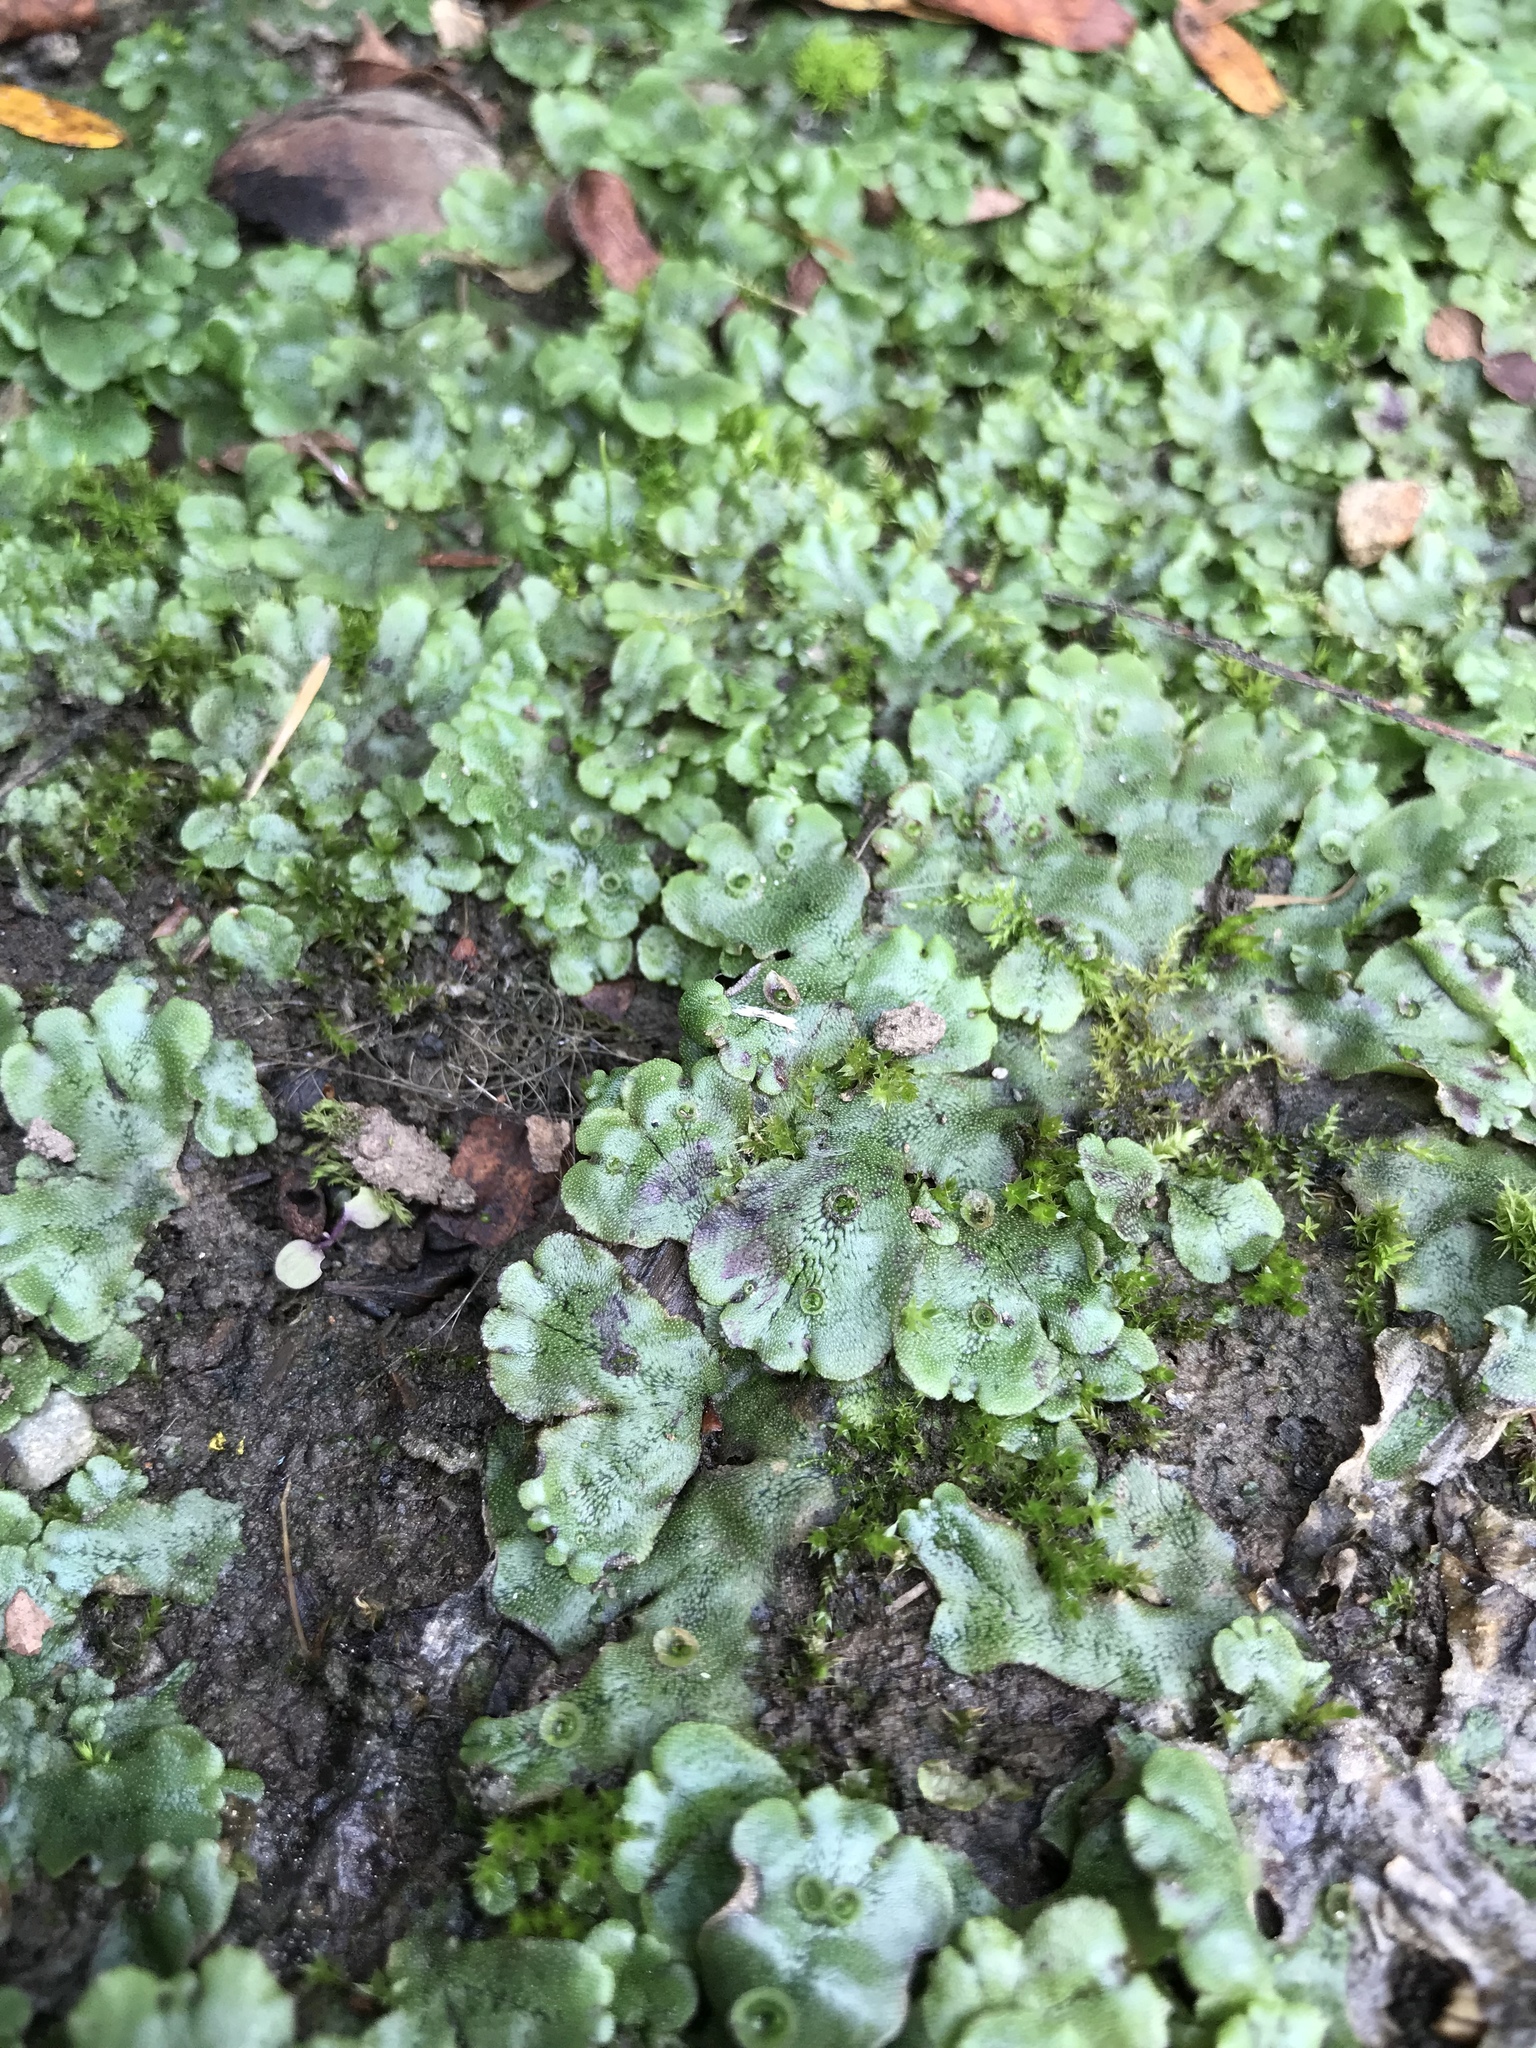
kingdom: Plantae
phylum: Marchantiophyta
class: Marchantiopsida
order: Marchantiales
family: Marchantiaceae
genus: Marchantia
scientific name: Marchantia polymorpha
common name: Common liverwort
